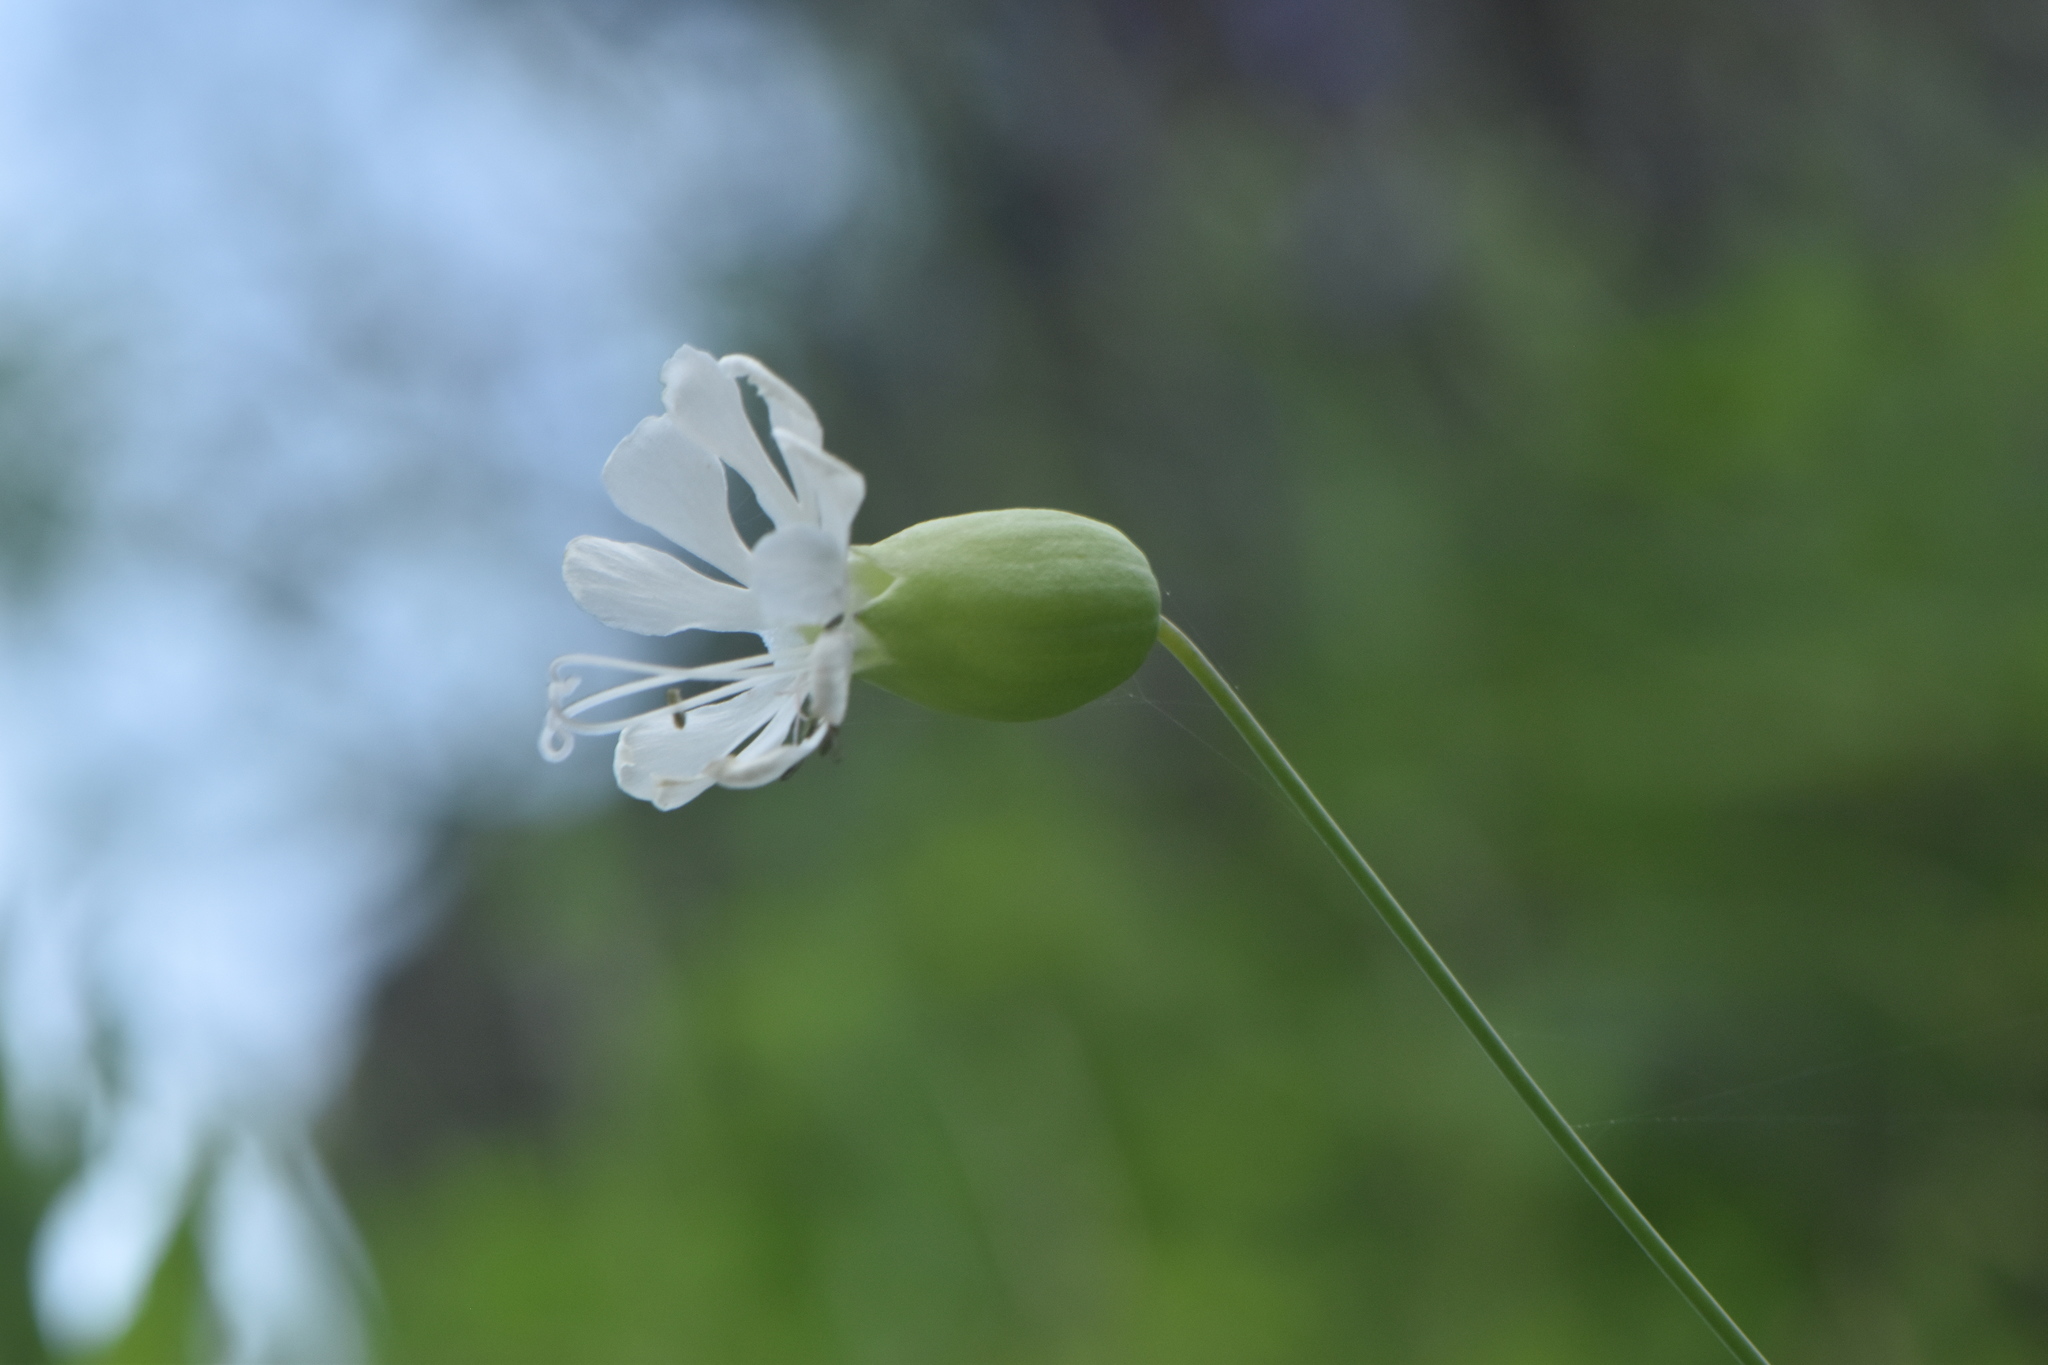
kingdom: Plantae
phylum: Tracheophyta
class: Magnoliopsida
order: Caryophyllales
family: Caryophyllaceae
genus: Silene
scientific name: Silene vulgaris
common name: Bladder campion
